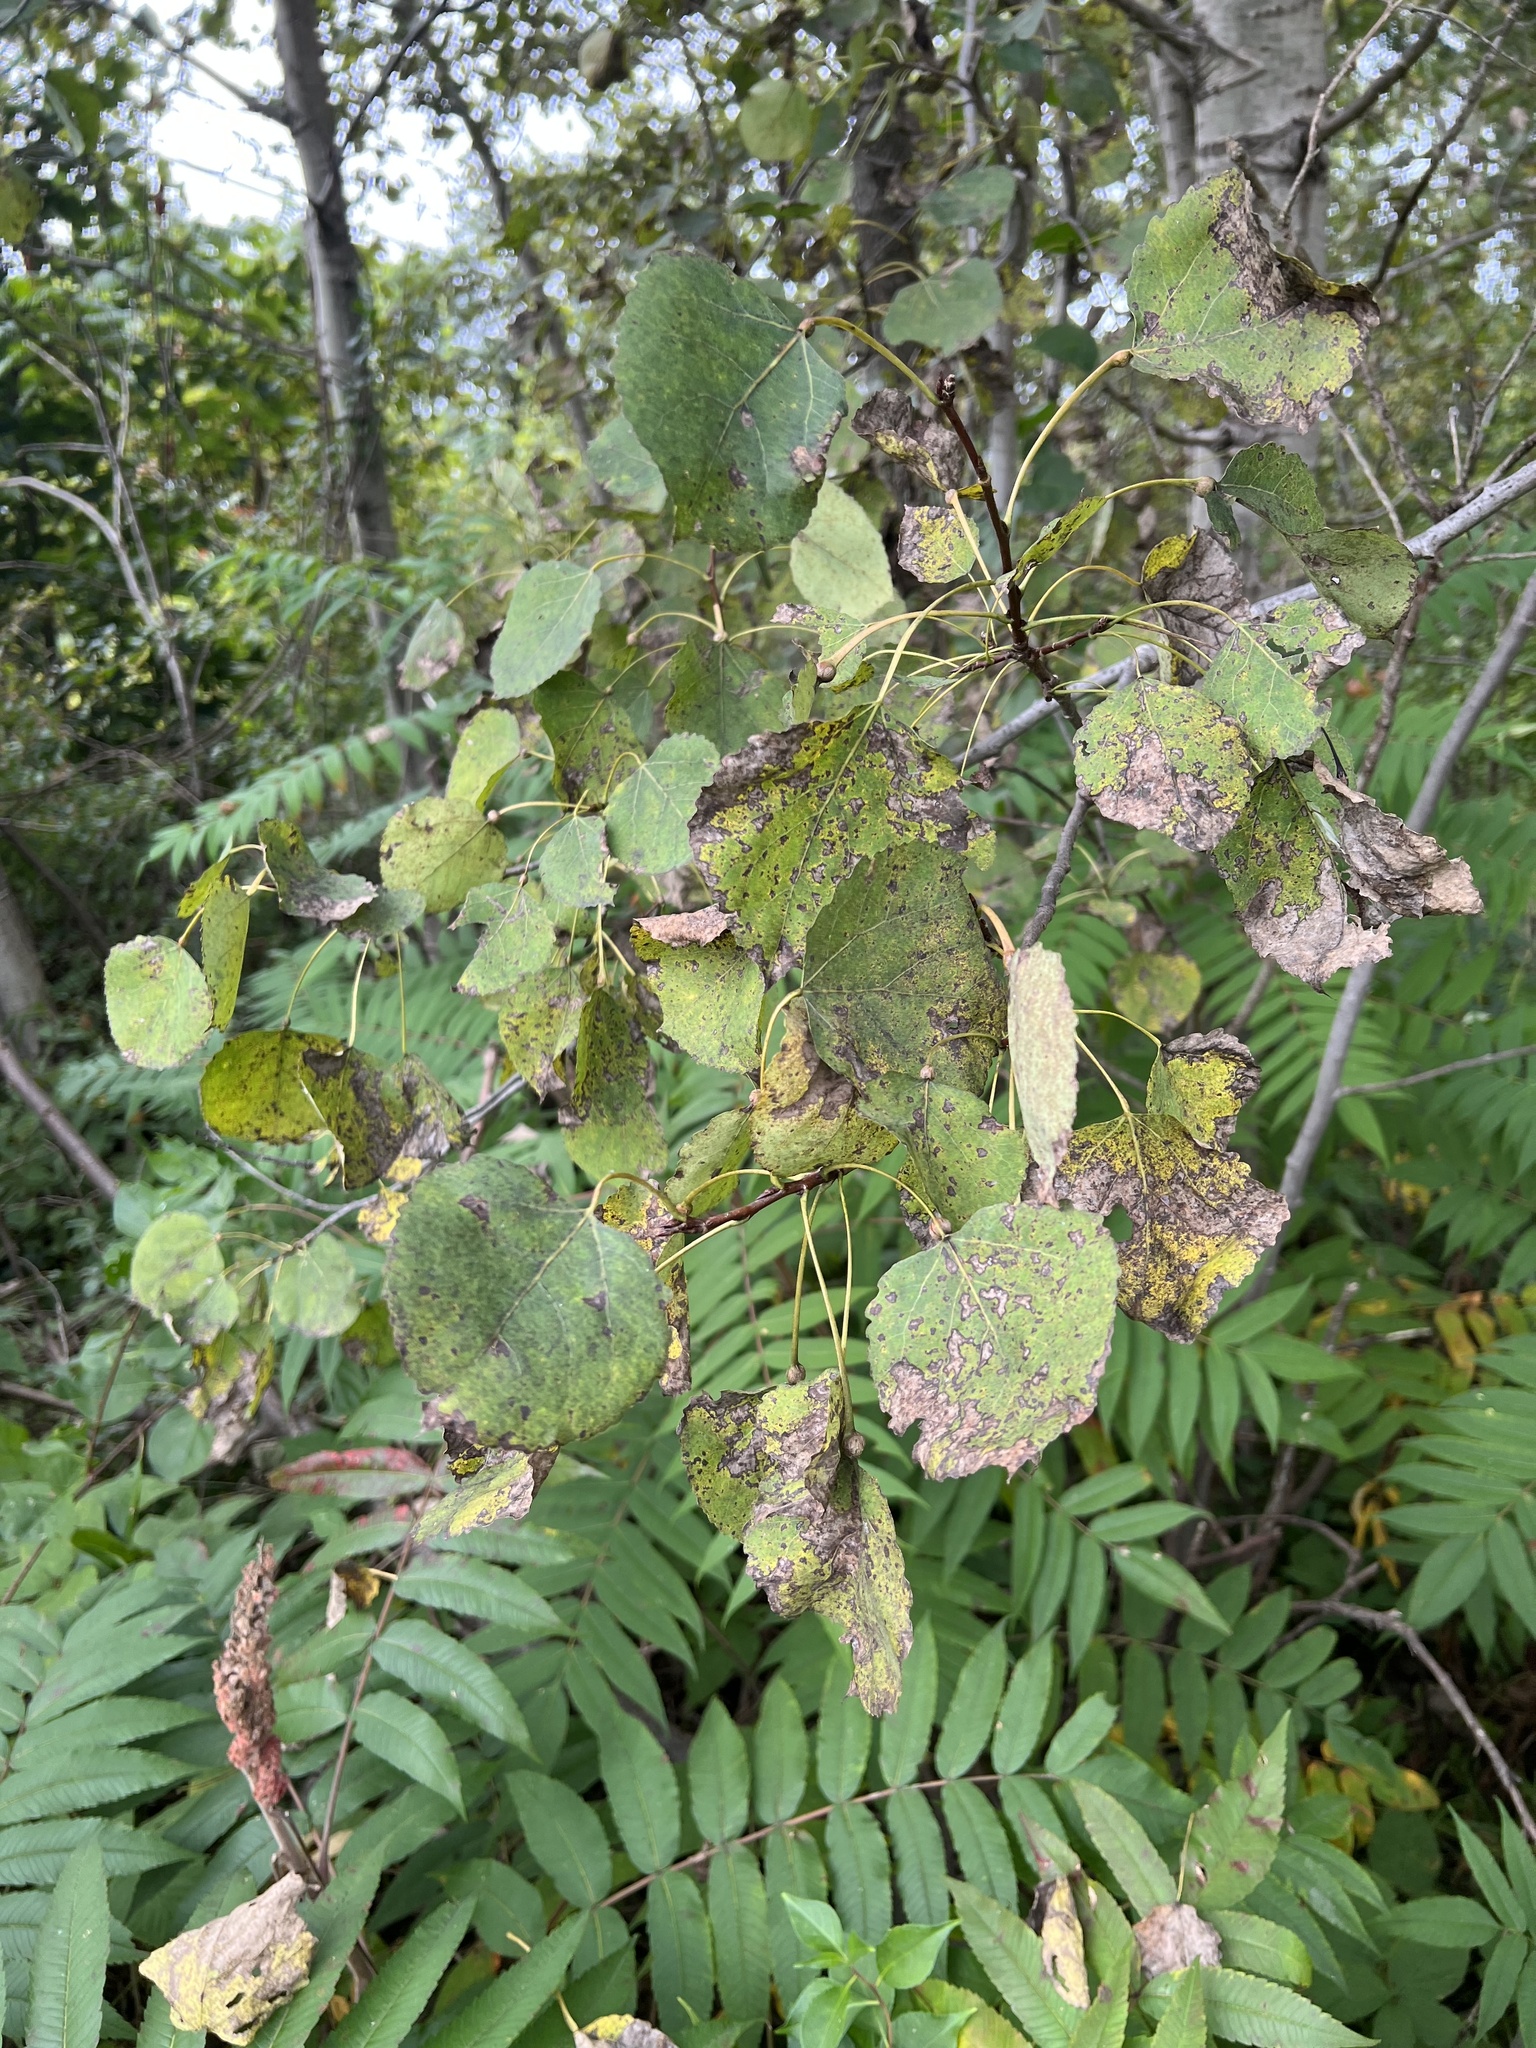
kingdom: Plantae
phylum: Tracheophyta
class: Magnoliopsida
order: Malpighiales
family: Salicaceae
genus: Populus
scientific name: Populus tremuloides
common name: Quaking aspen
